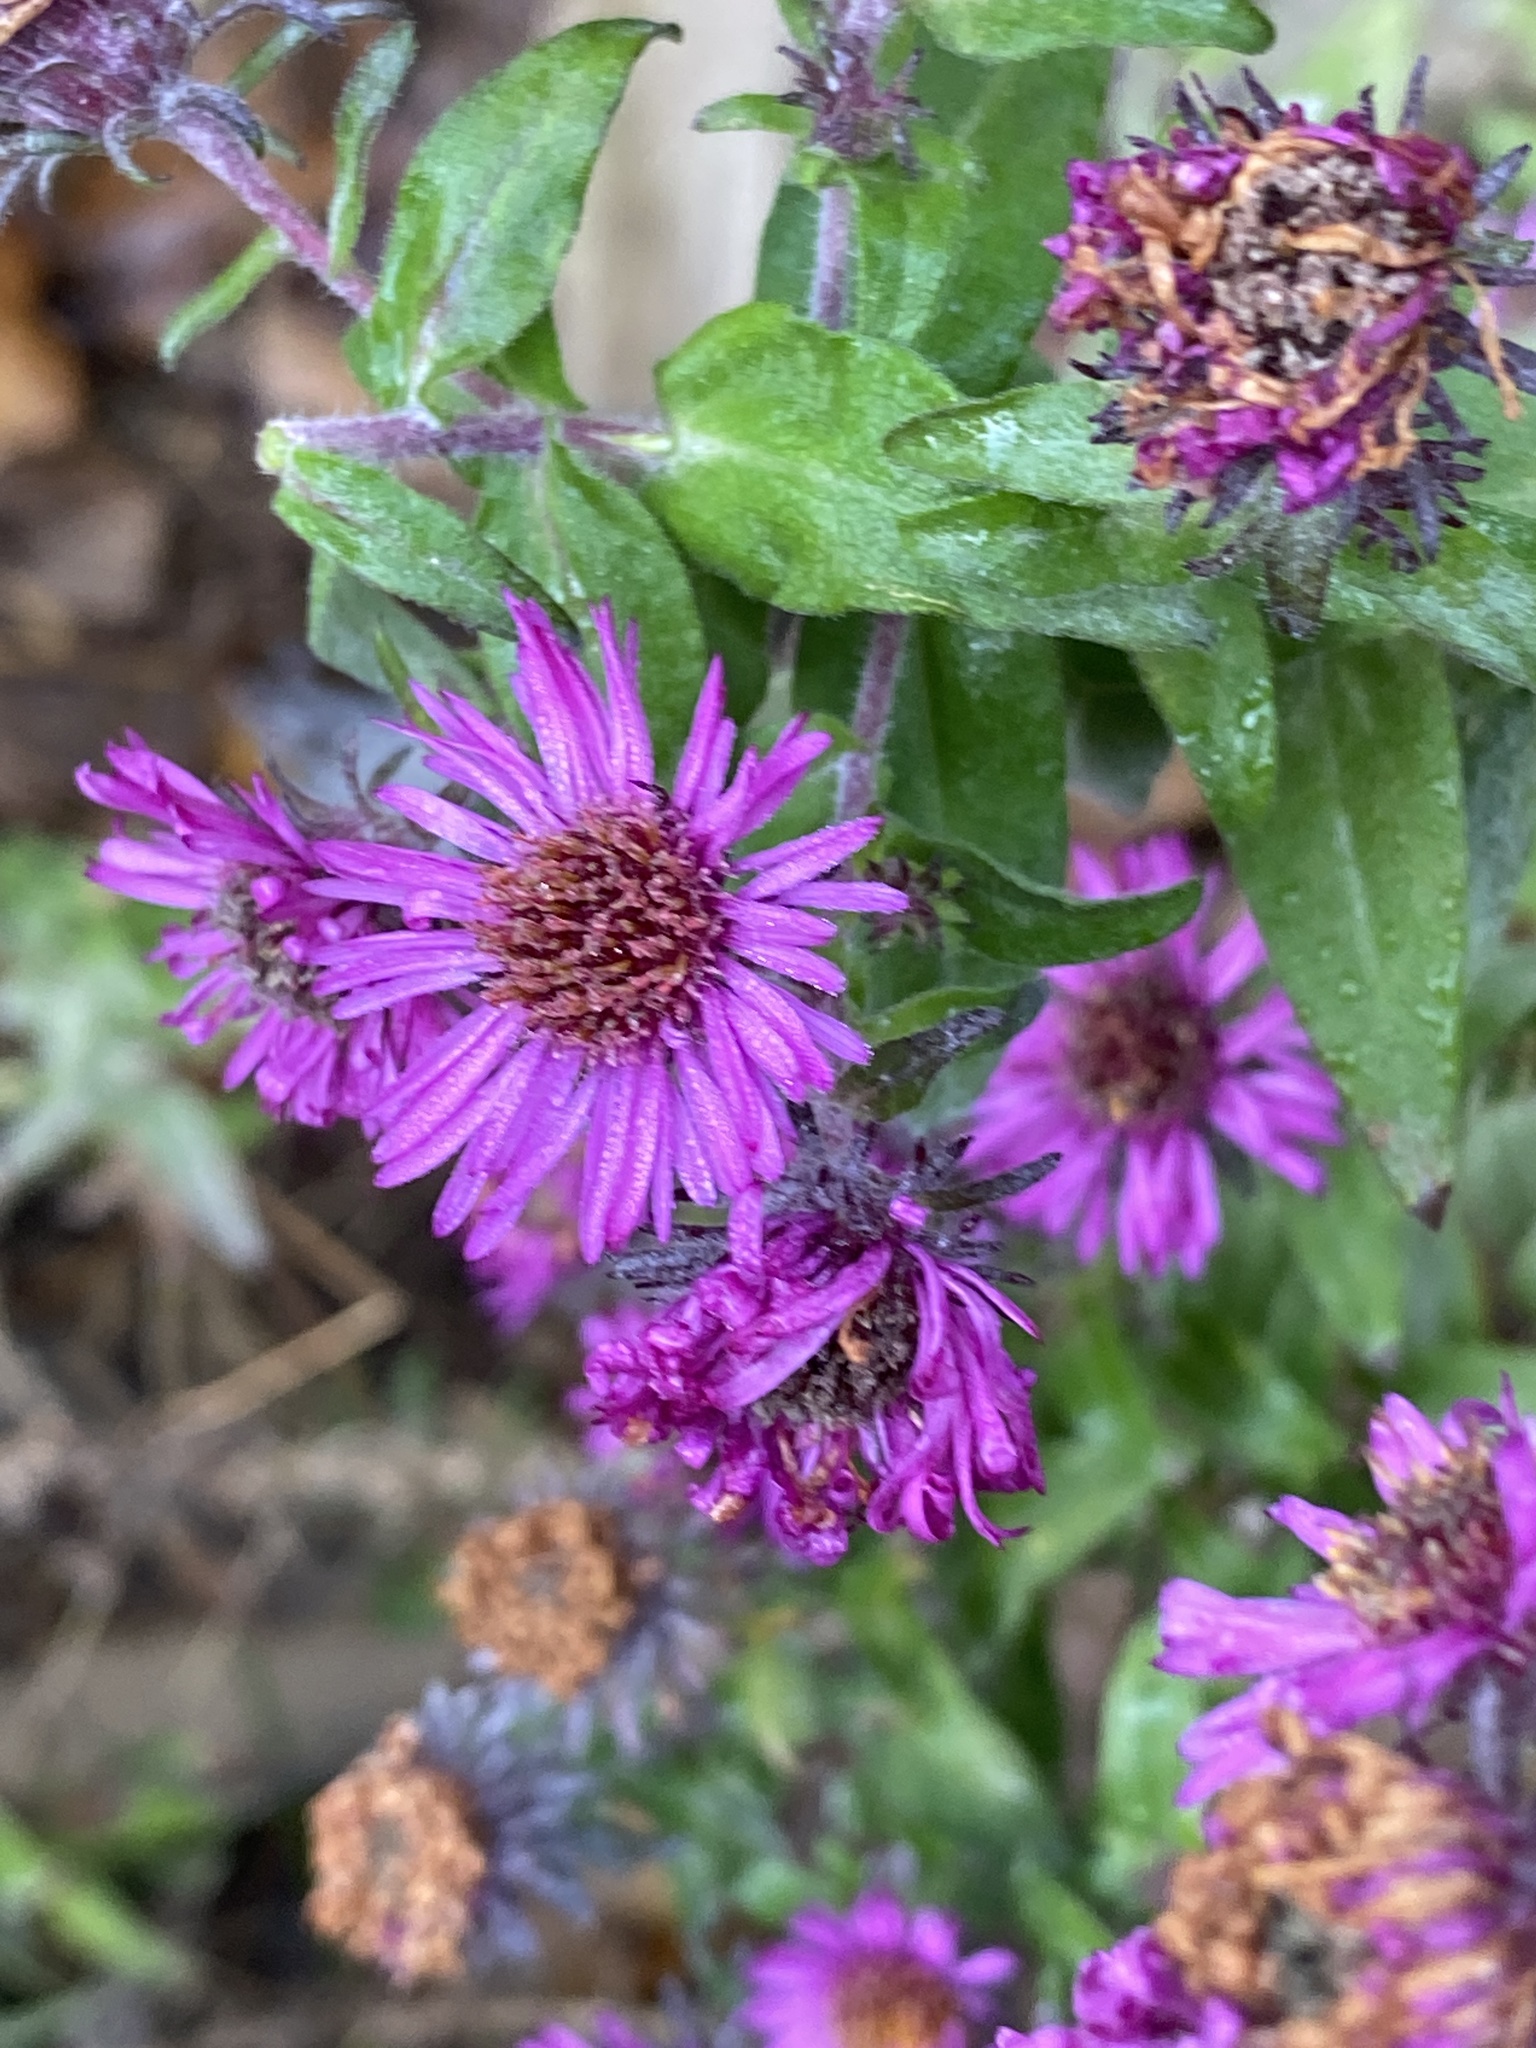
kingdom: Plantae
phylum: Tracheophyta
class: Magnoliopsida
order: Asterales
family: Asteraceae
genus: Symphyotrichum
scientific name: Symphyotrichum novae-angliae
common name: Michaelmas daisy
